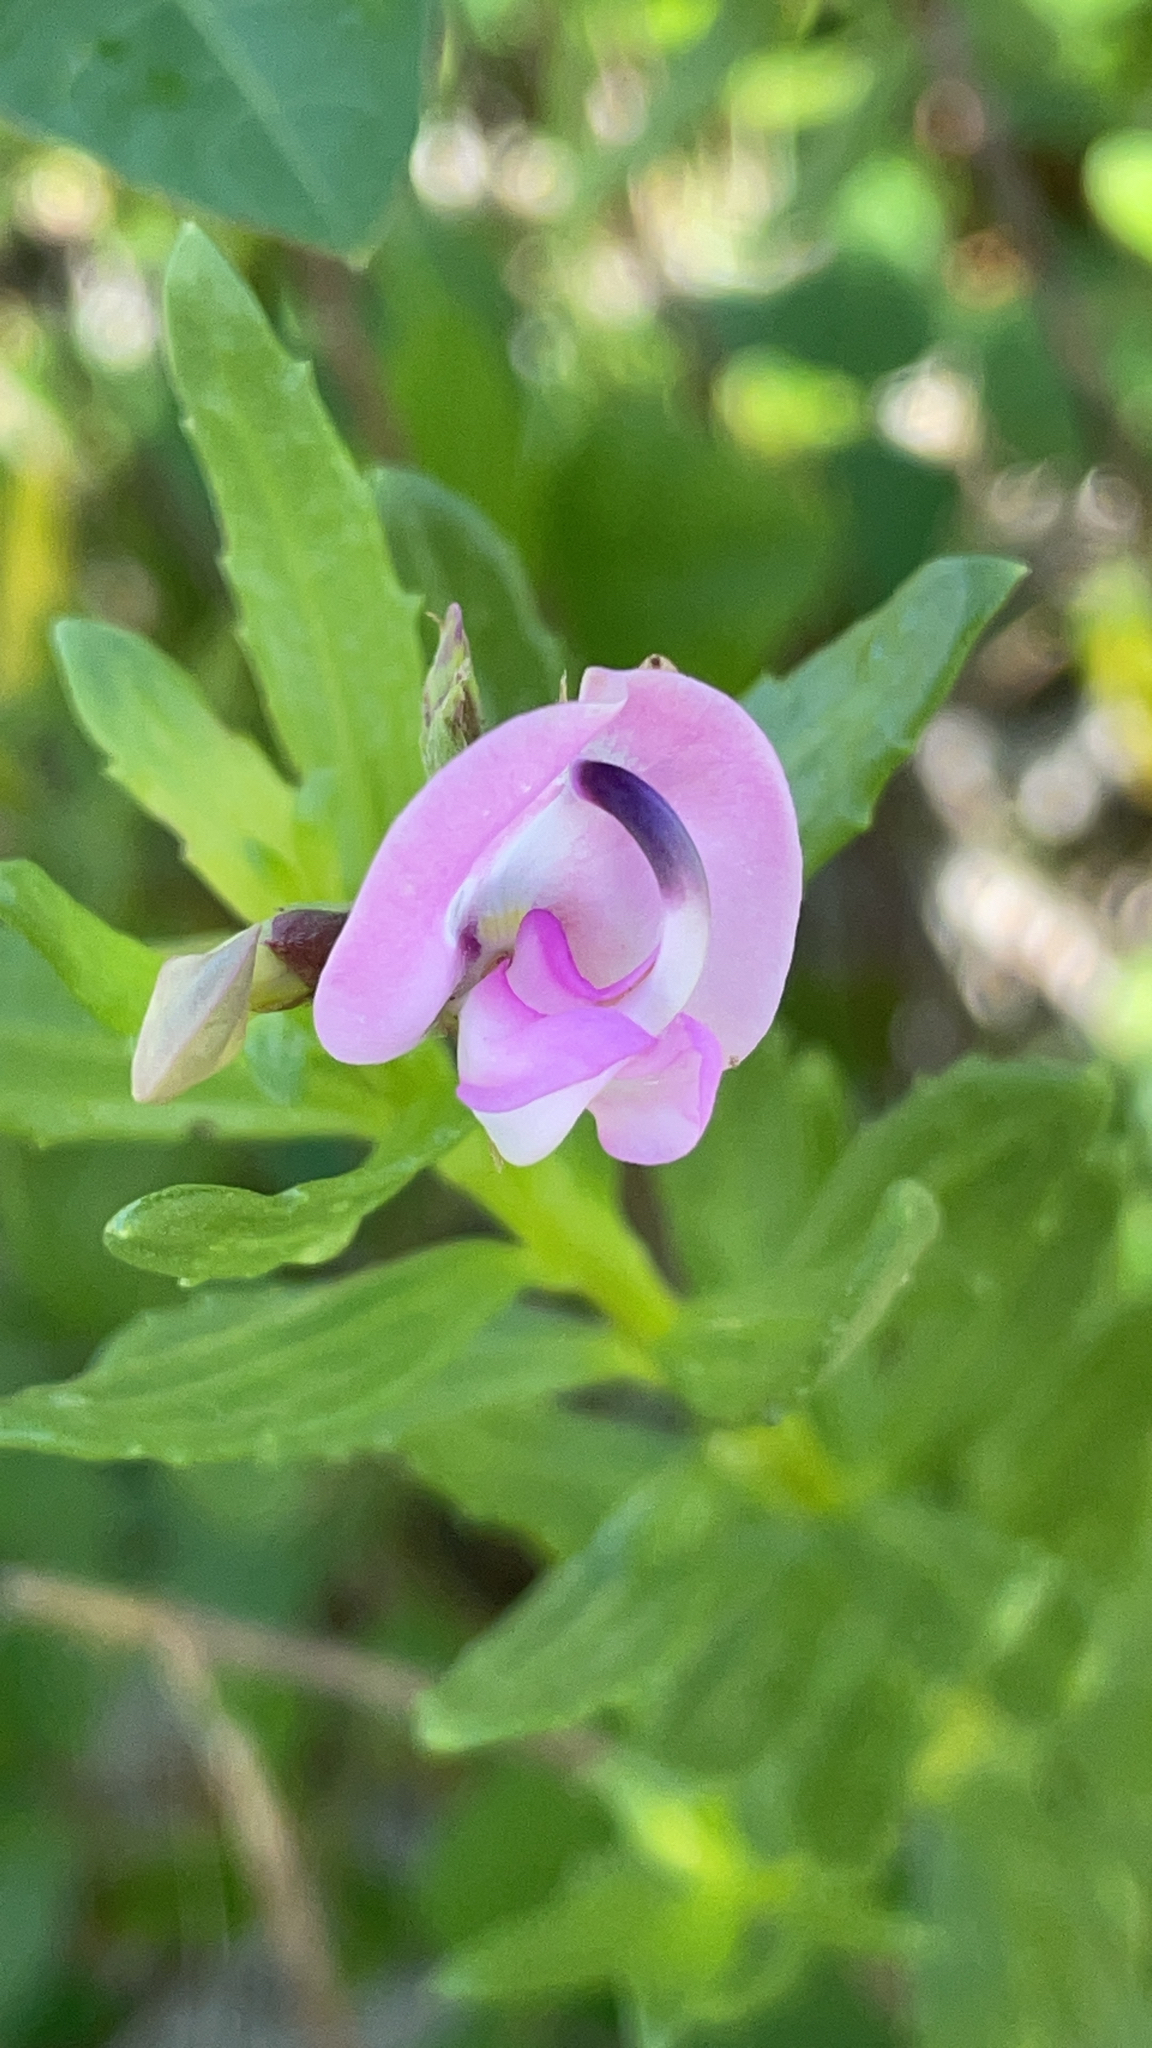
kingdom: Plantae
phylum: Tracheophyta
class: Magnoliopsida
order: Fabales
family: Fabaceae
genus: Strophostyles
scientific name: Strophostyles helvola
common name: Trailing wild bean
